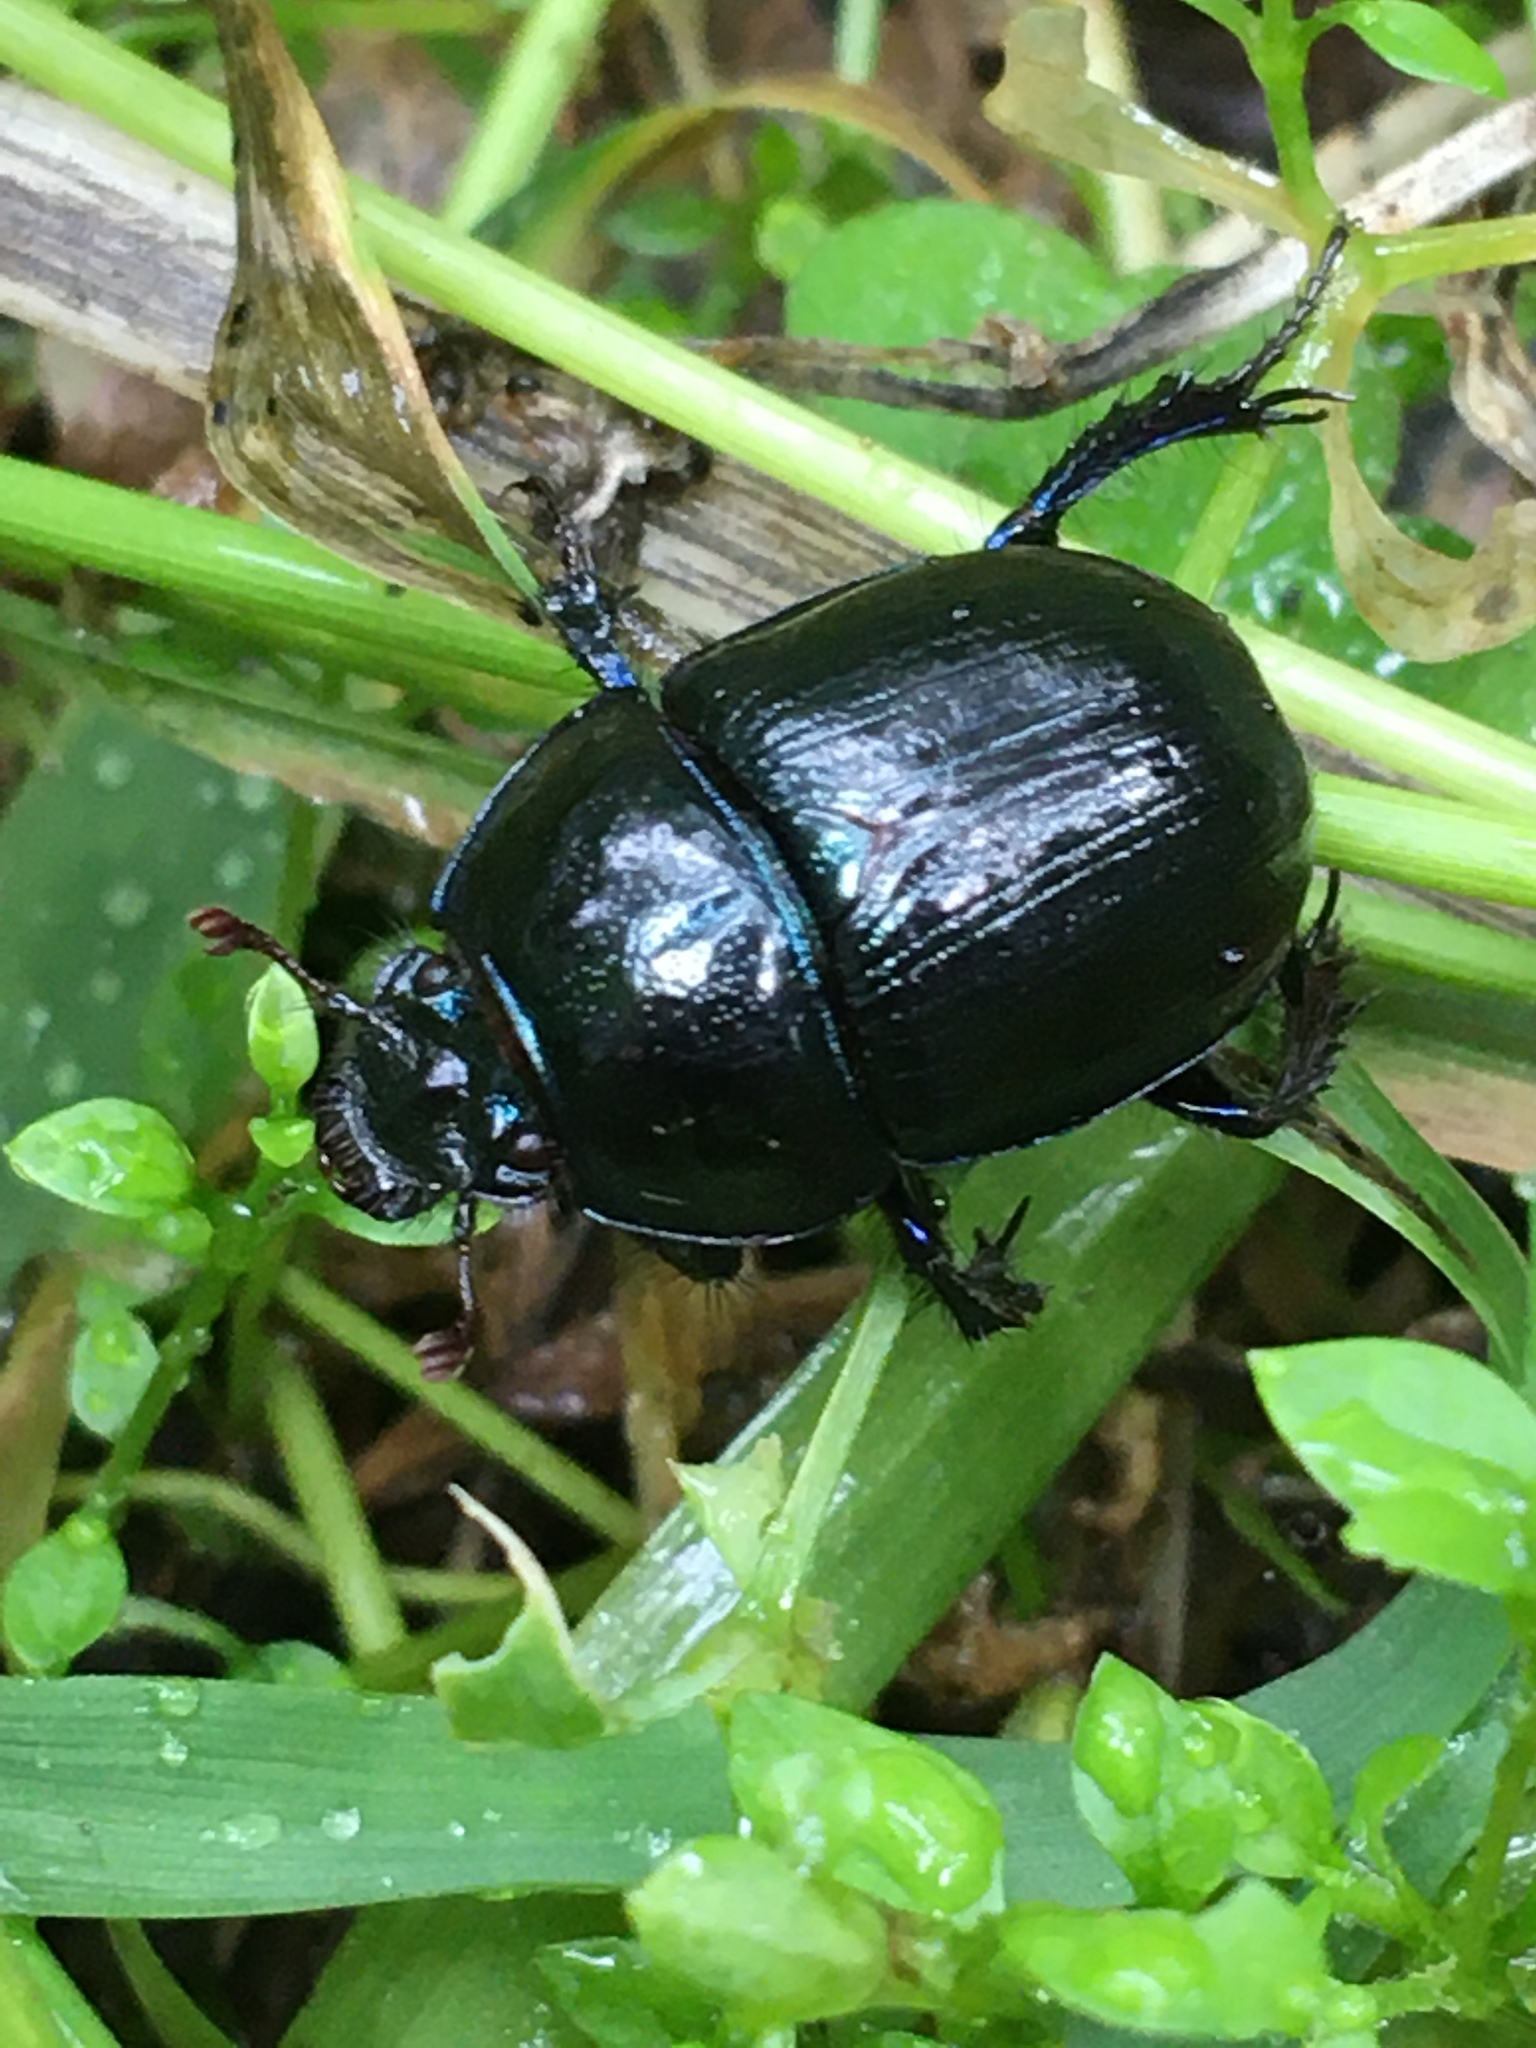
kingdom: Animalia
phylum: Arthropoda
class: Insecta
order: Coleoptera
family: Geotrupidae
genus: Anoplotrupes
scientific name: Anoplotrupes stercorosus
